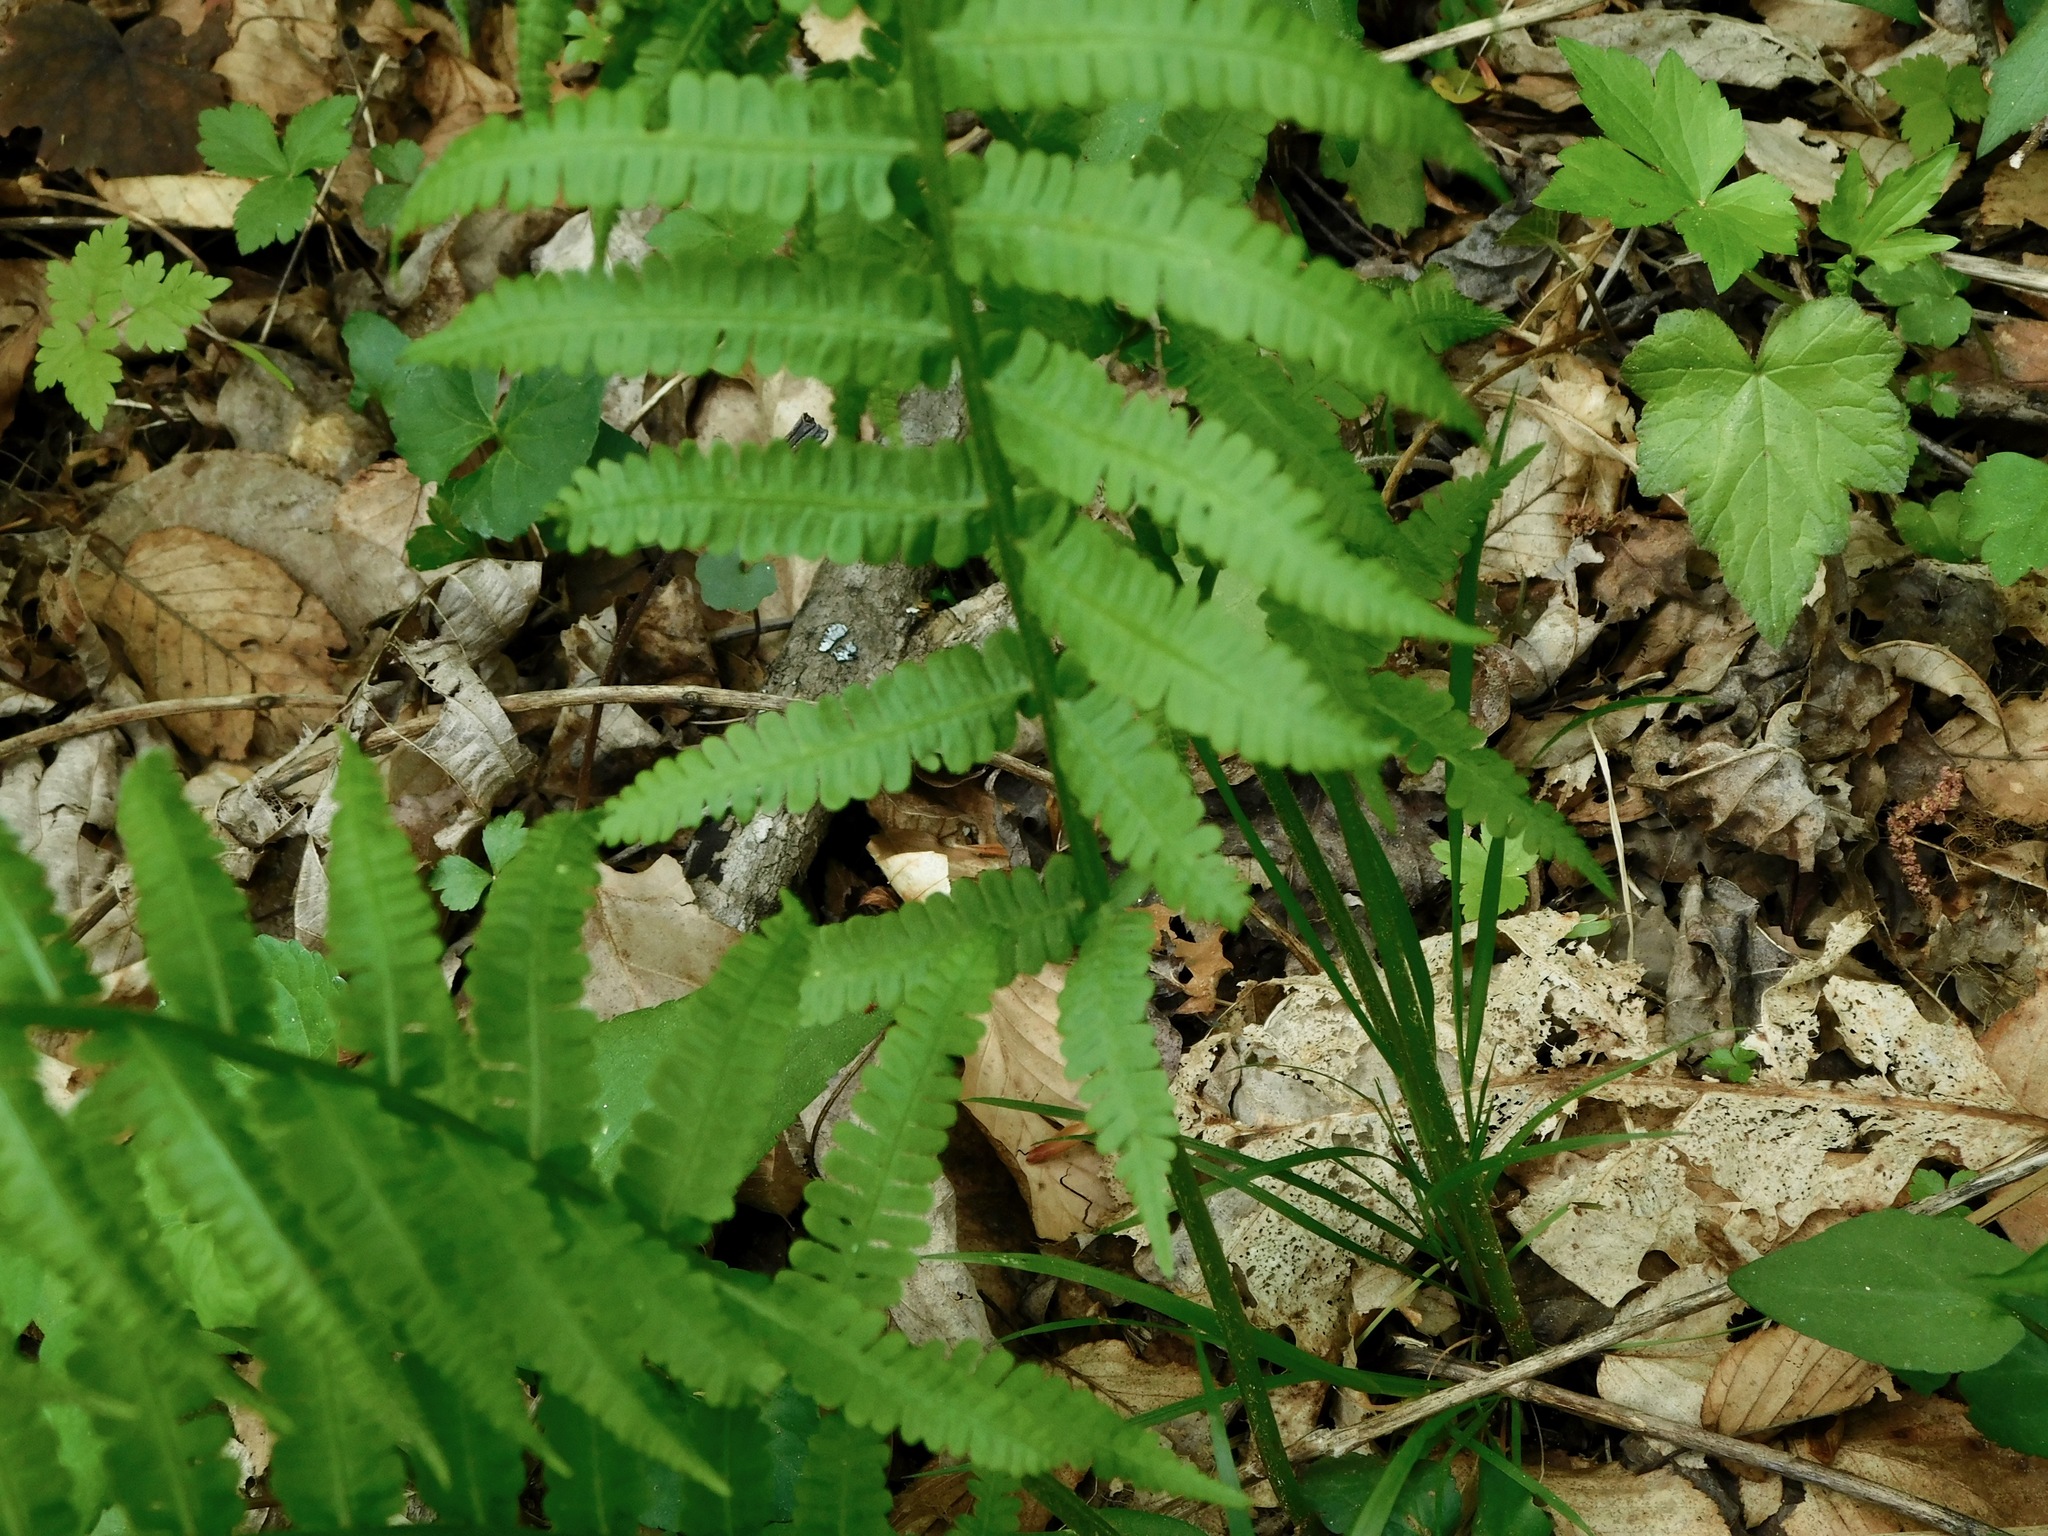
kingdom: Plantae
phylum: Tracheophyta
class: Polypodiopsida
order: Polypodiales
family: Athyriaceae
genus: Deparia
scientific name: Deparia acrostichoides
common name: Silver false spleenwort
